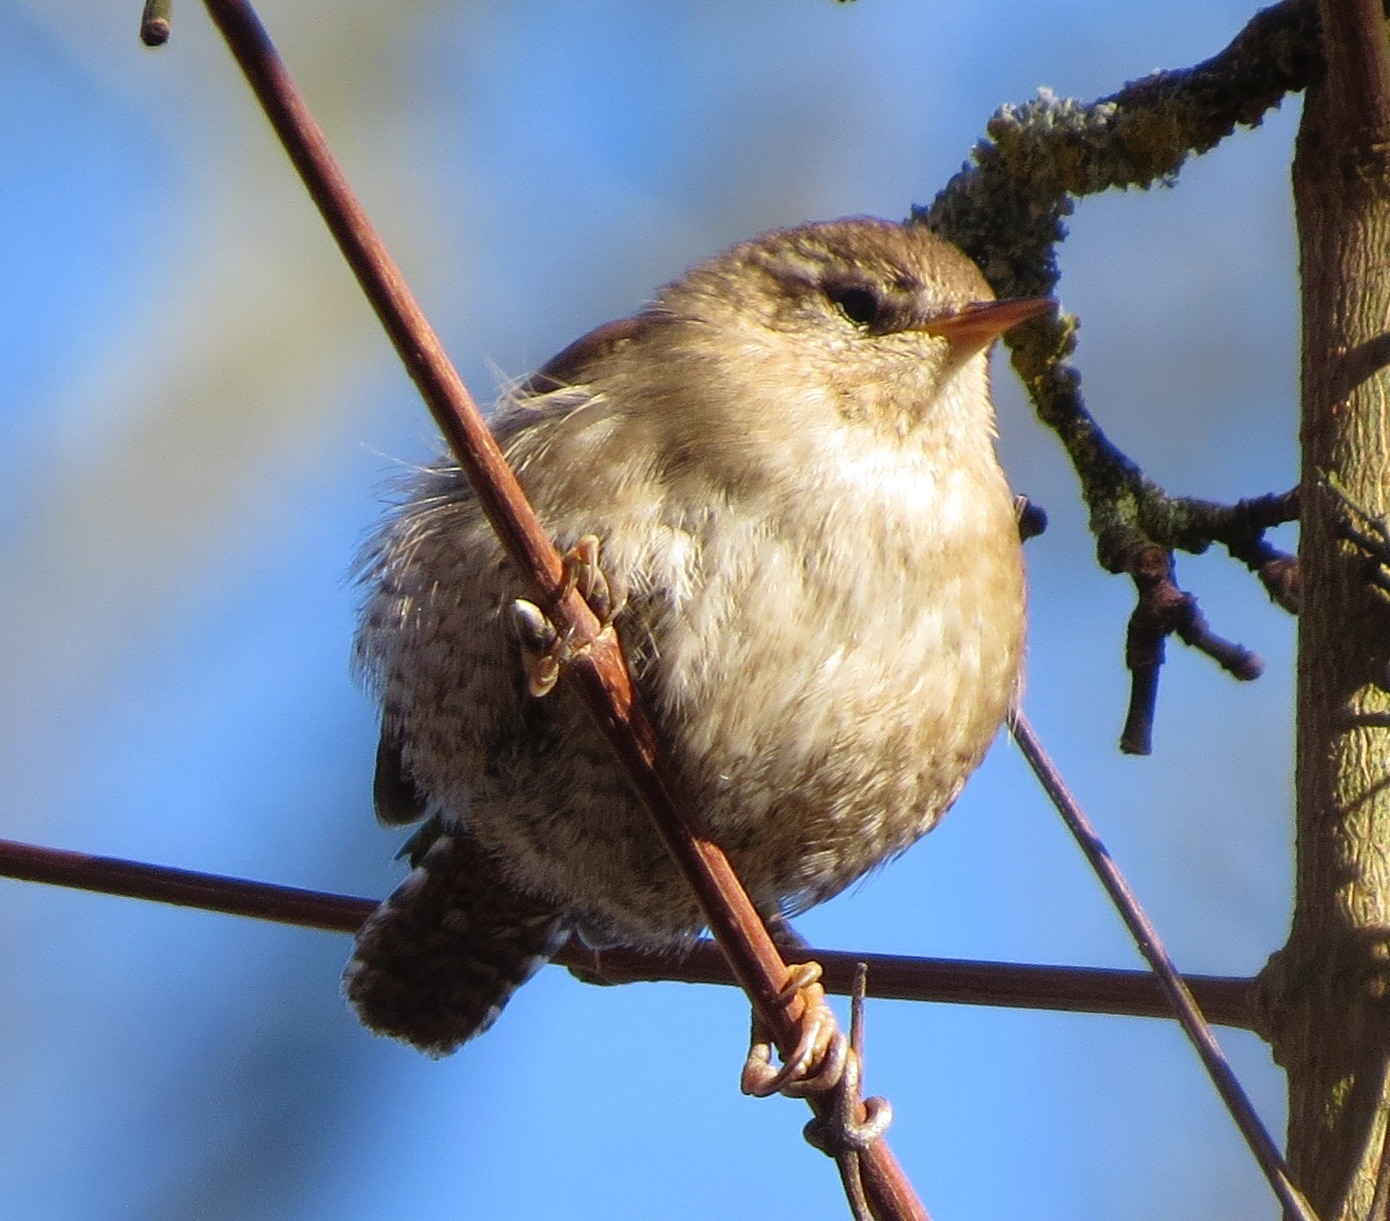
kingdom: Animalia
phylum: Chordata
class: Aves
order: Passeriformes
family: Troglodytidae
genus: Troglodytes
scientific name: Troglodytes troglodytes
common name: Eurasian wren
